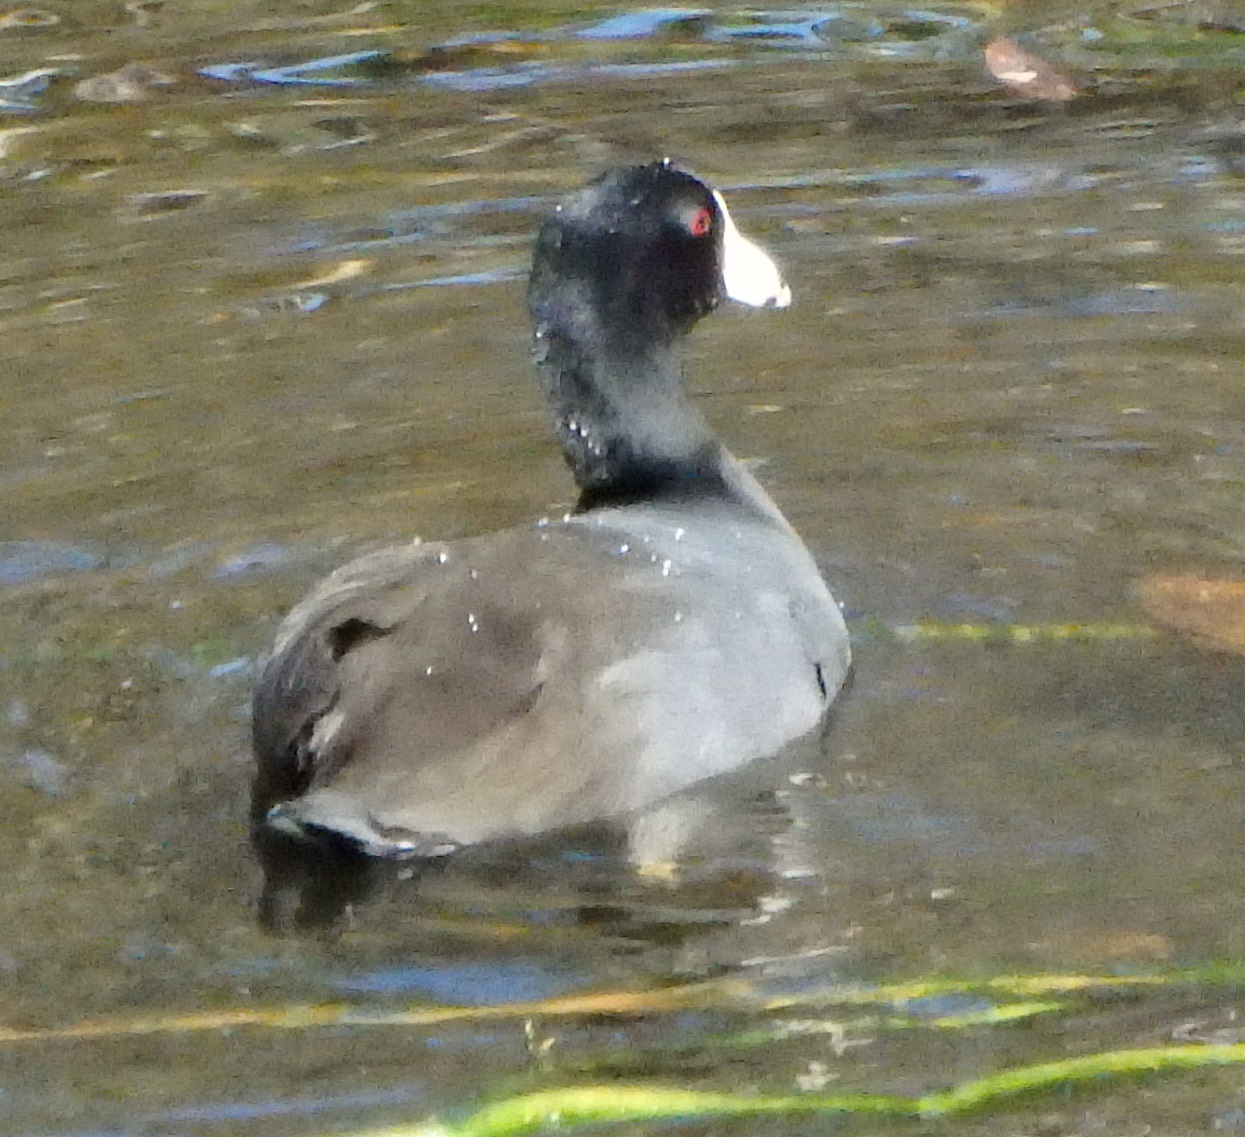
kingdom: Animalia
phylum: Chordata
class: Aves
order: Gruiformes
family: Rallidae
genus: Fulica
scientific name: Fulica americana
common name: American coot
